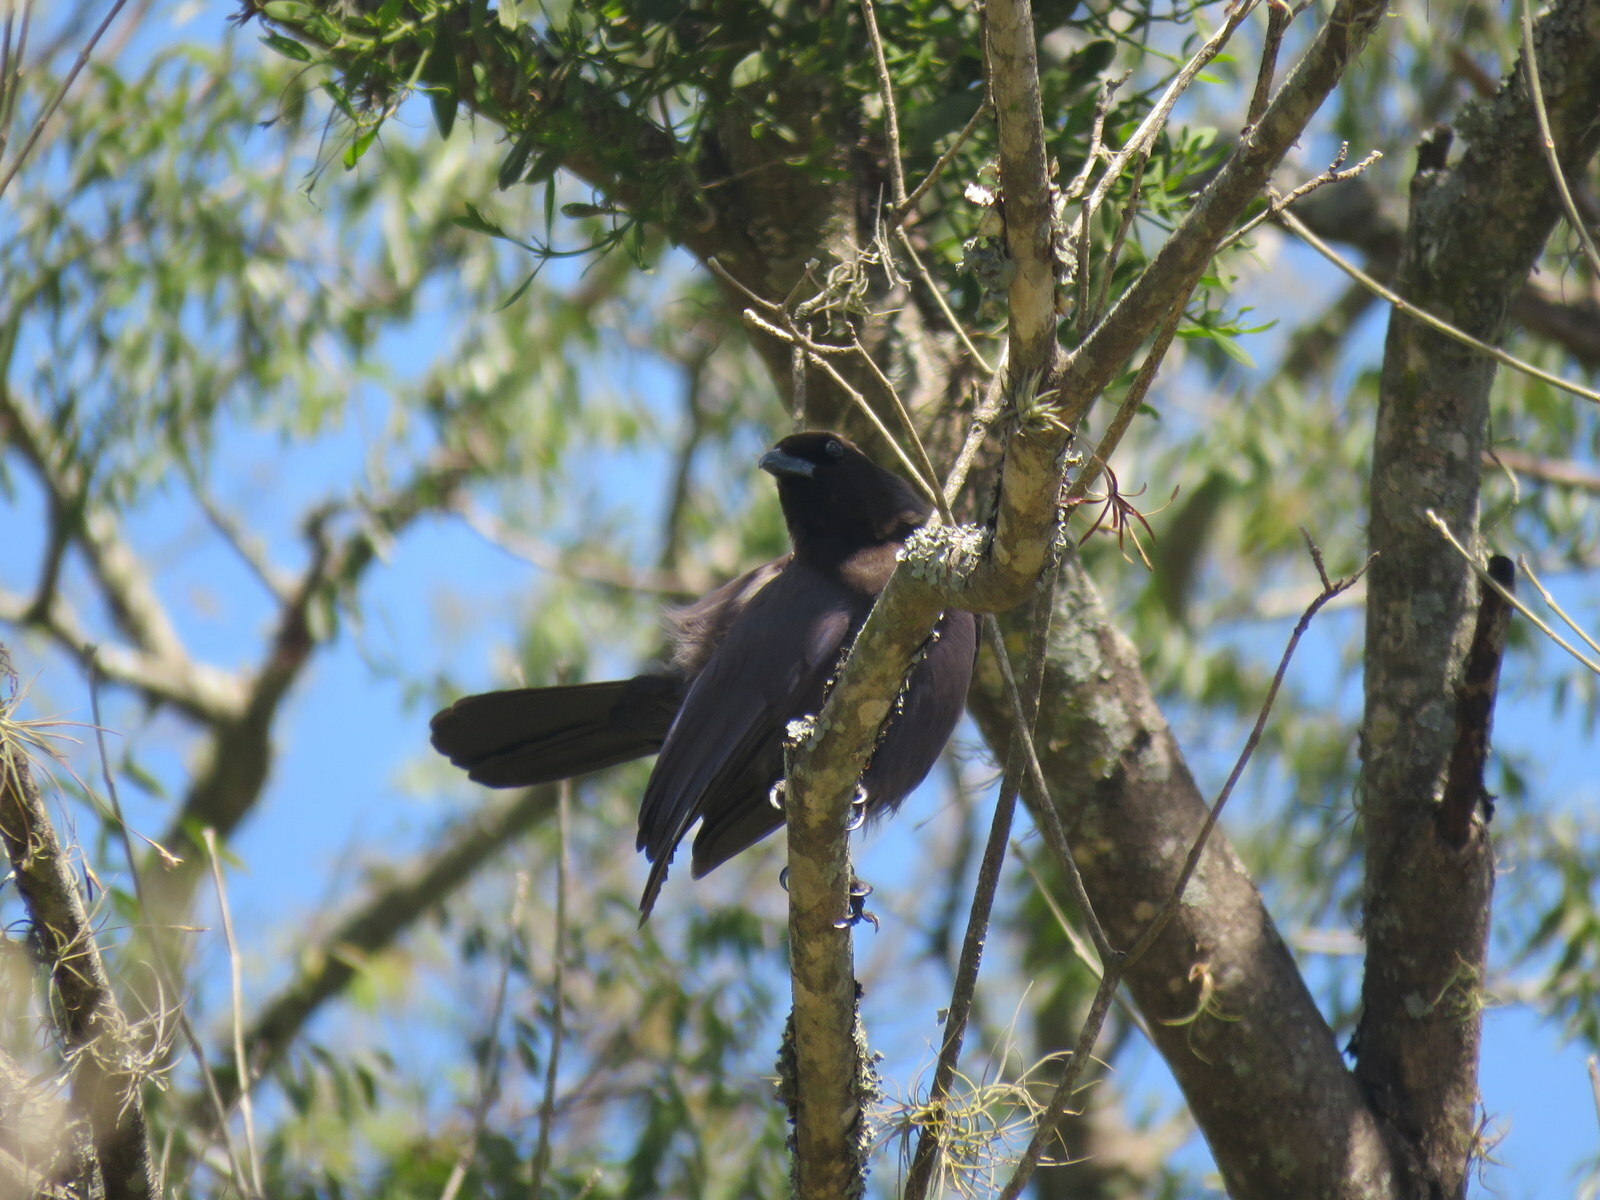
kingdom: Animalia
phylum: Chordata
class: Aves
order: Passeriformes
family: Corvidae
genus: Cyanocorax
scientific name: Cyanocorax cyanomelas
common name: Purplish jay
